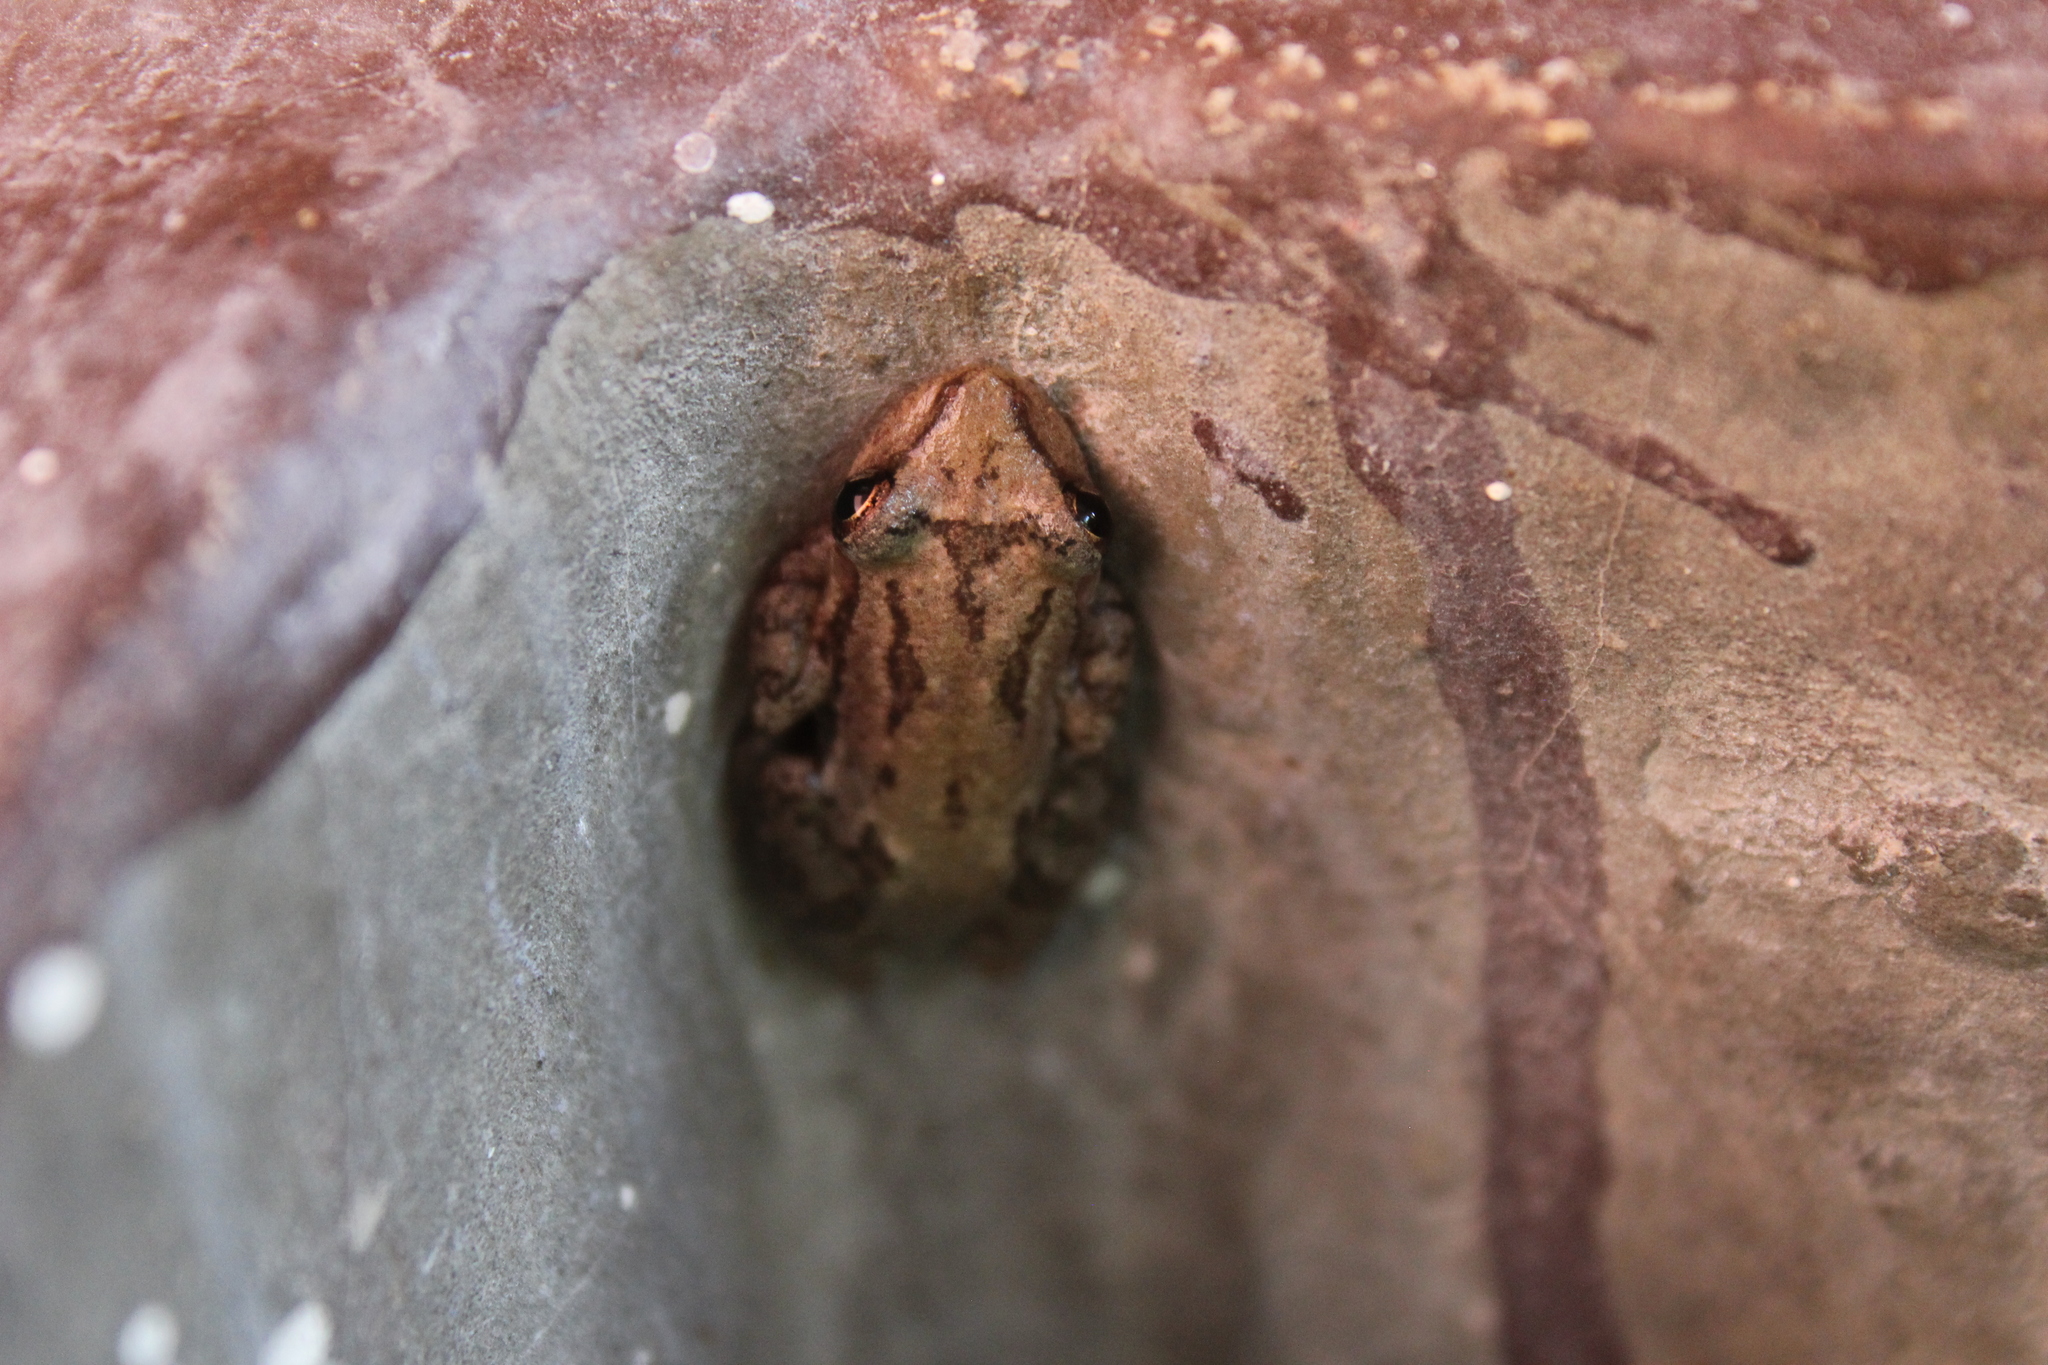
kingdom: Animalia
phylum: Chordata
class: Amphibia
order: Anura
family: Hylidae
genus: Scinax
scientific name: Scinax staufferi
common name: Stauffer's long-nosed treefrog
